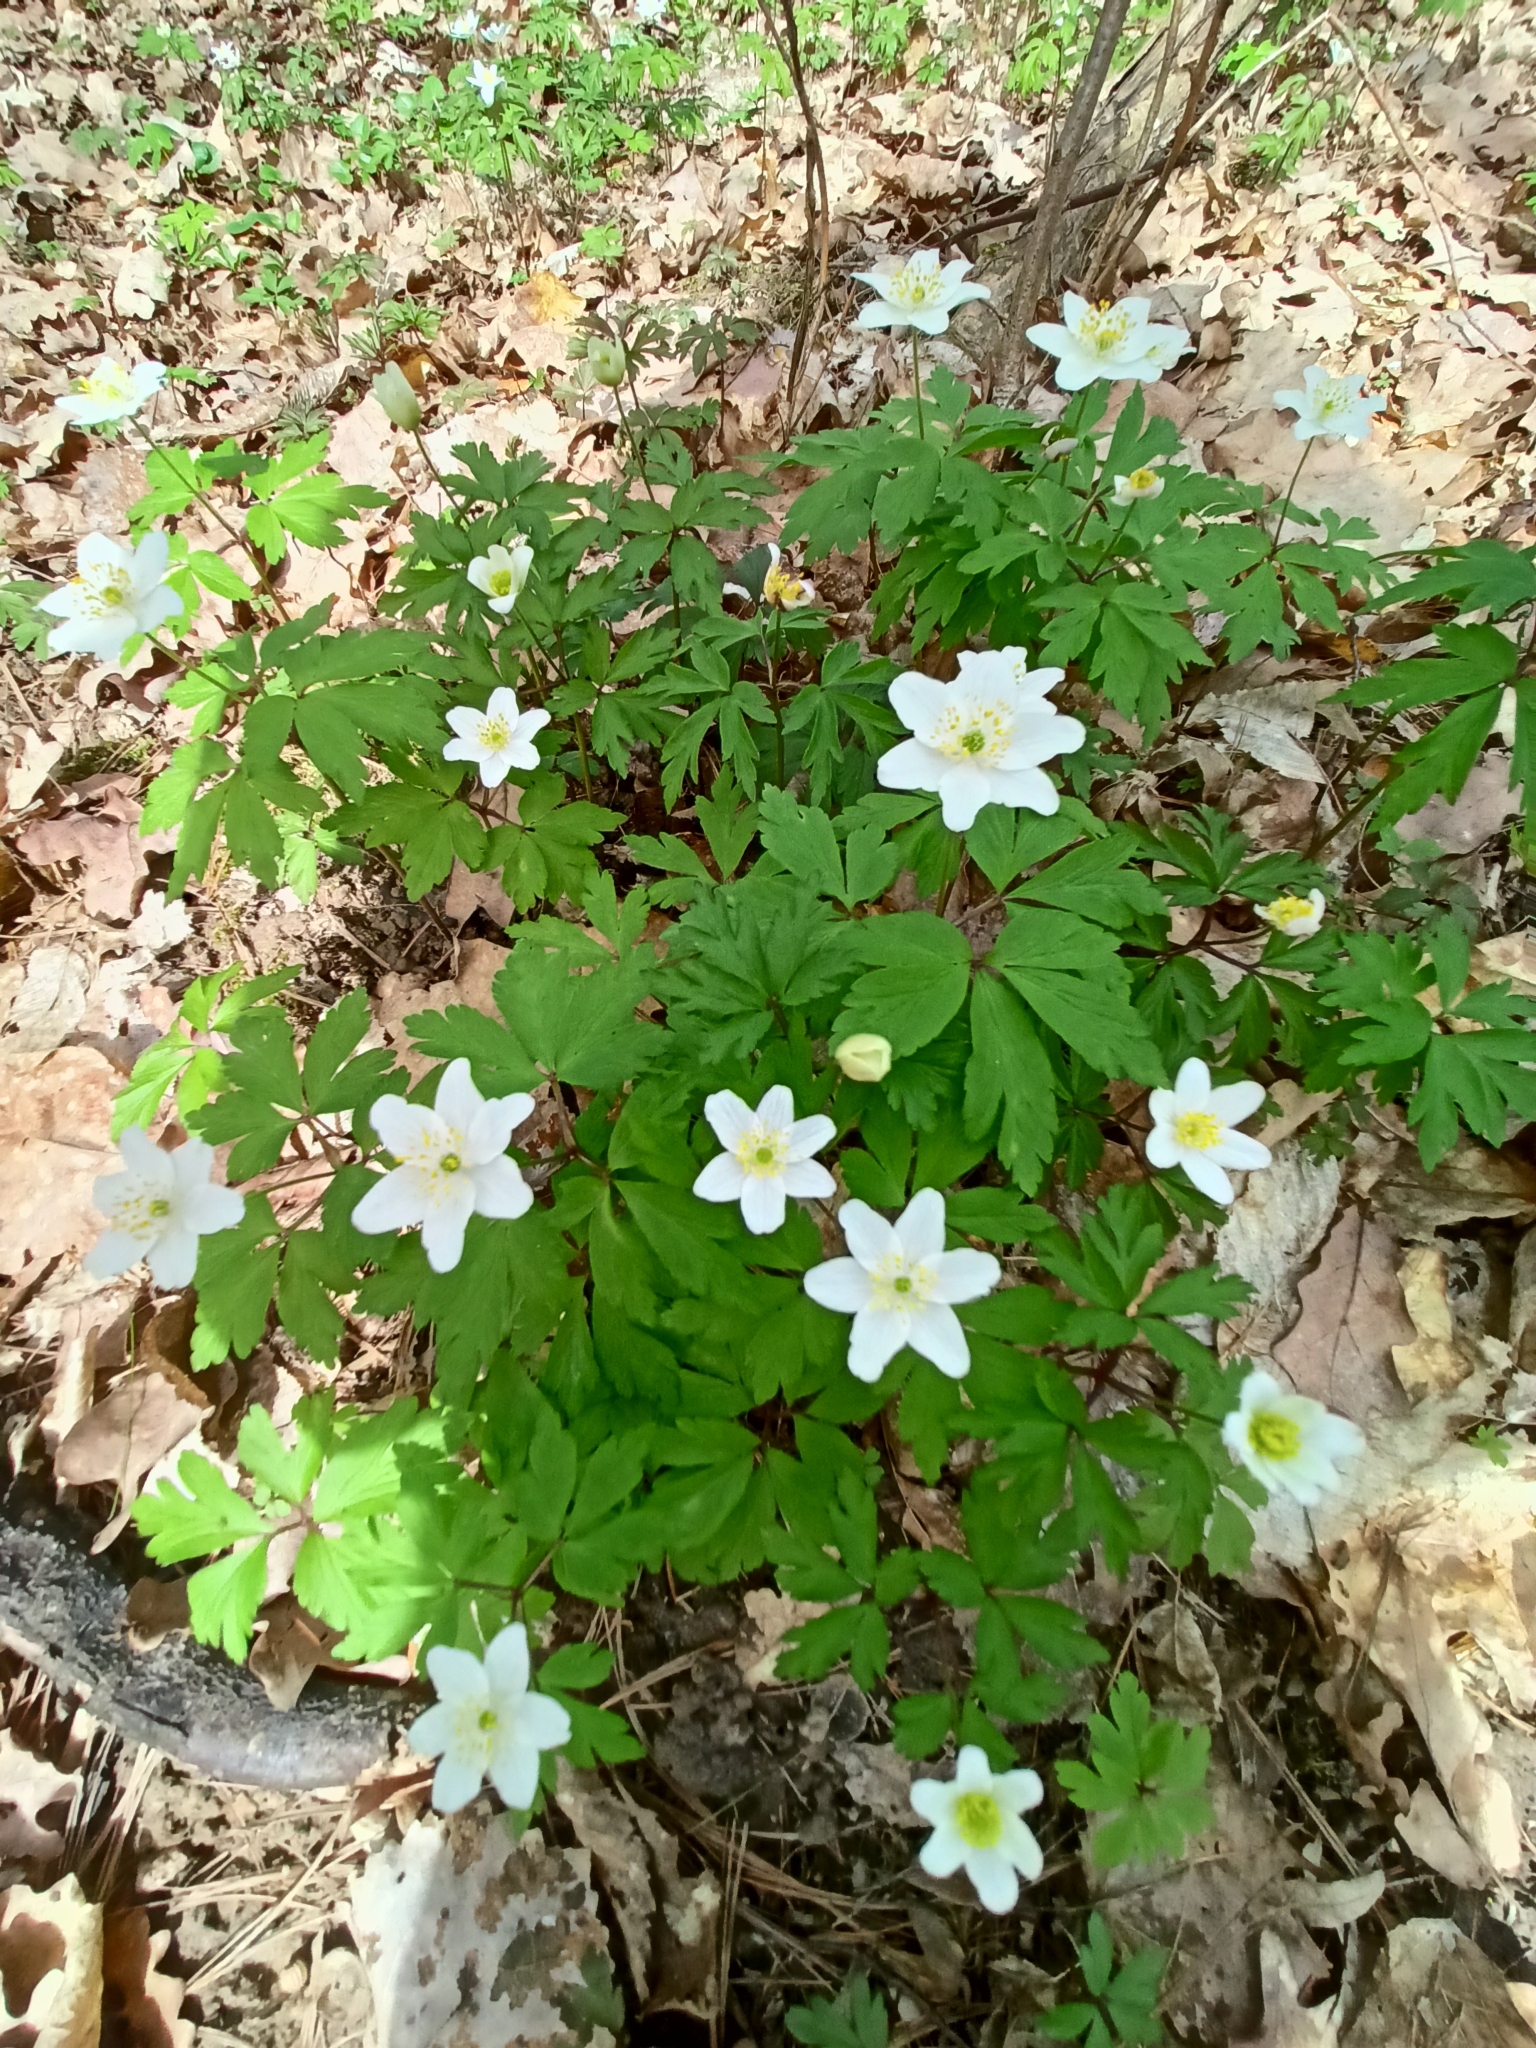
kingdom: Plantae
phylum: Tracheophyta
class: Magnoliopsida
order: Ranunculales
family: Ranunculaceae
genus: Anemone
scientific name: Anemone nemorosa
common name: Wood anemone
